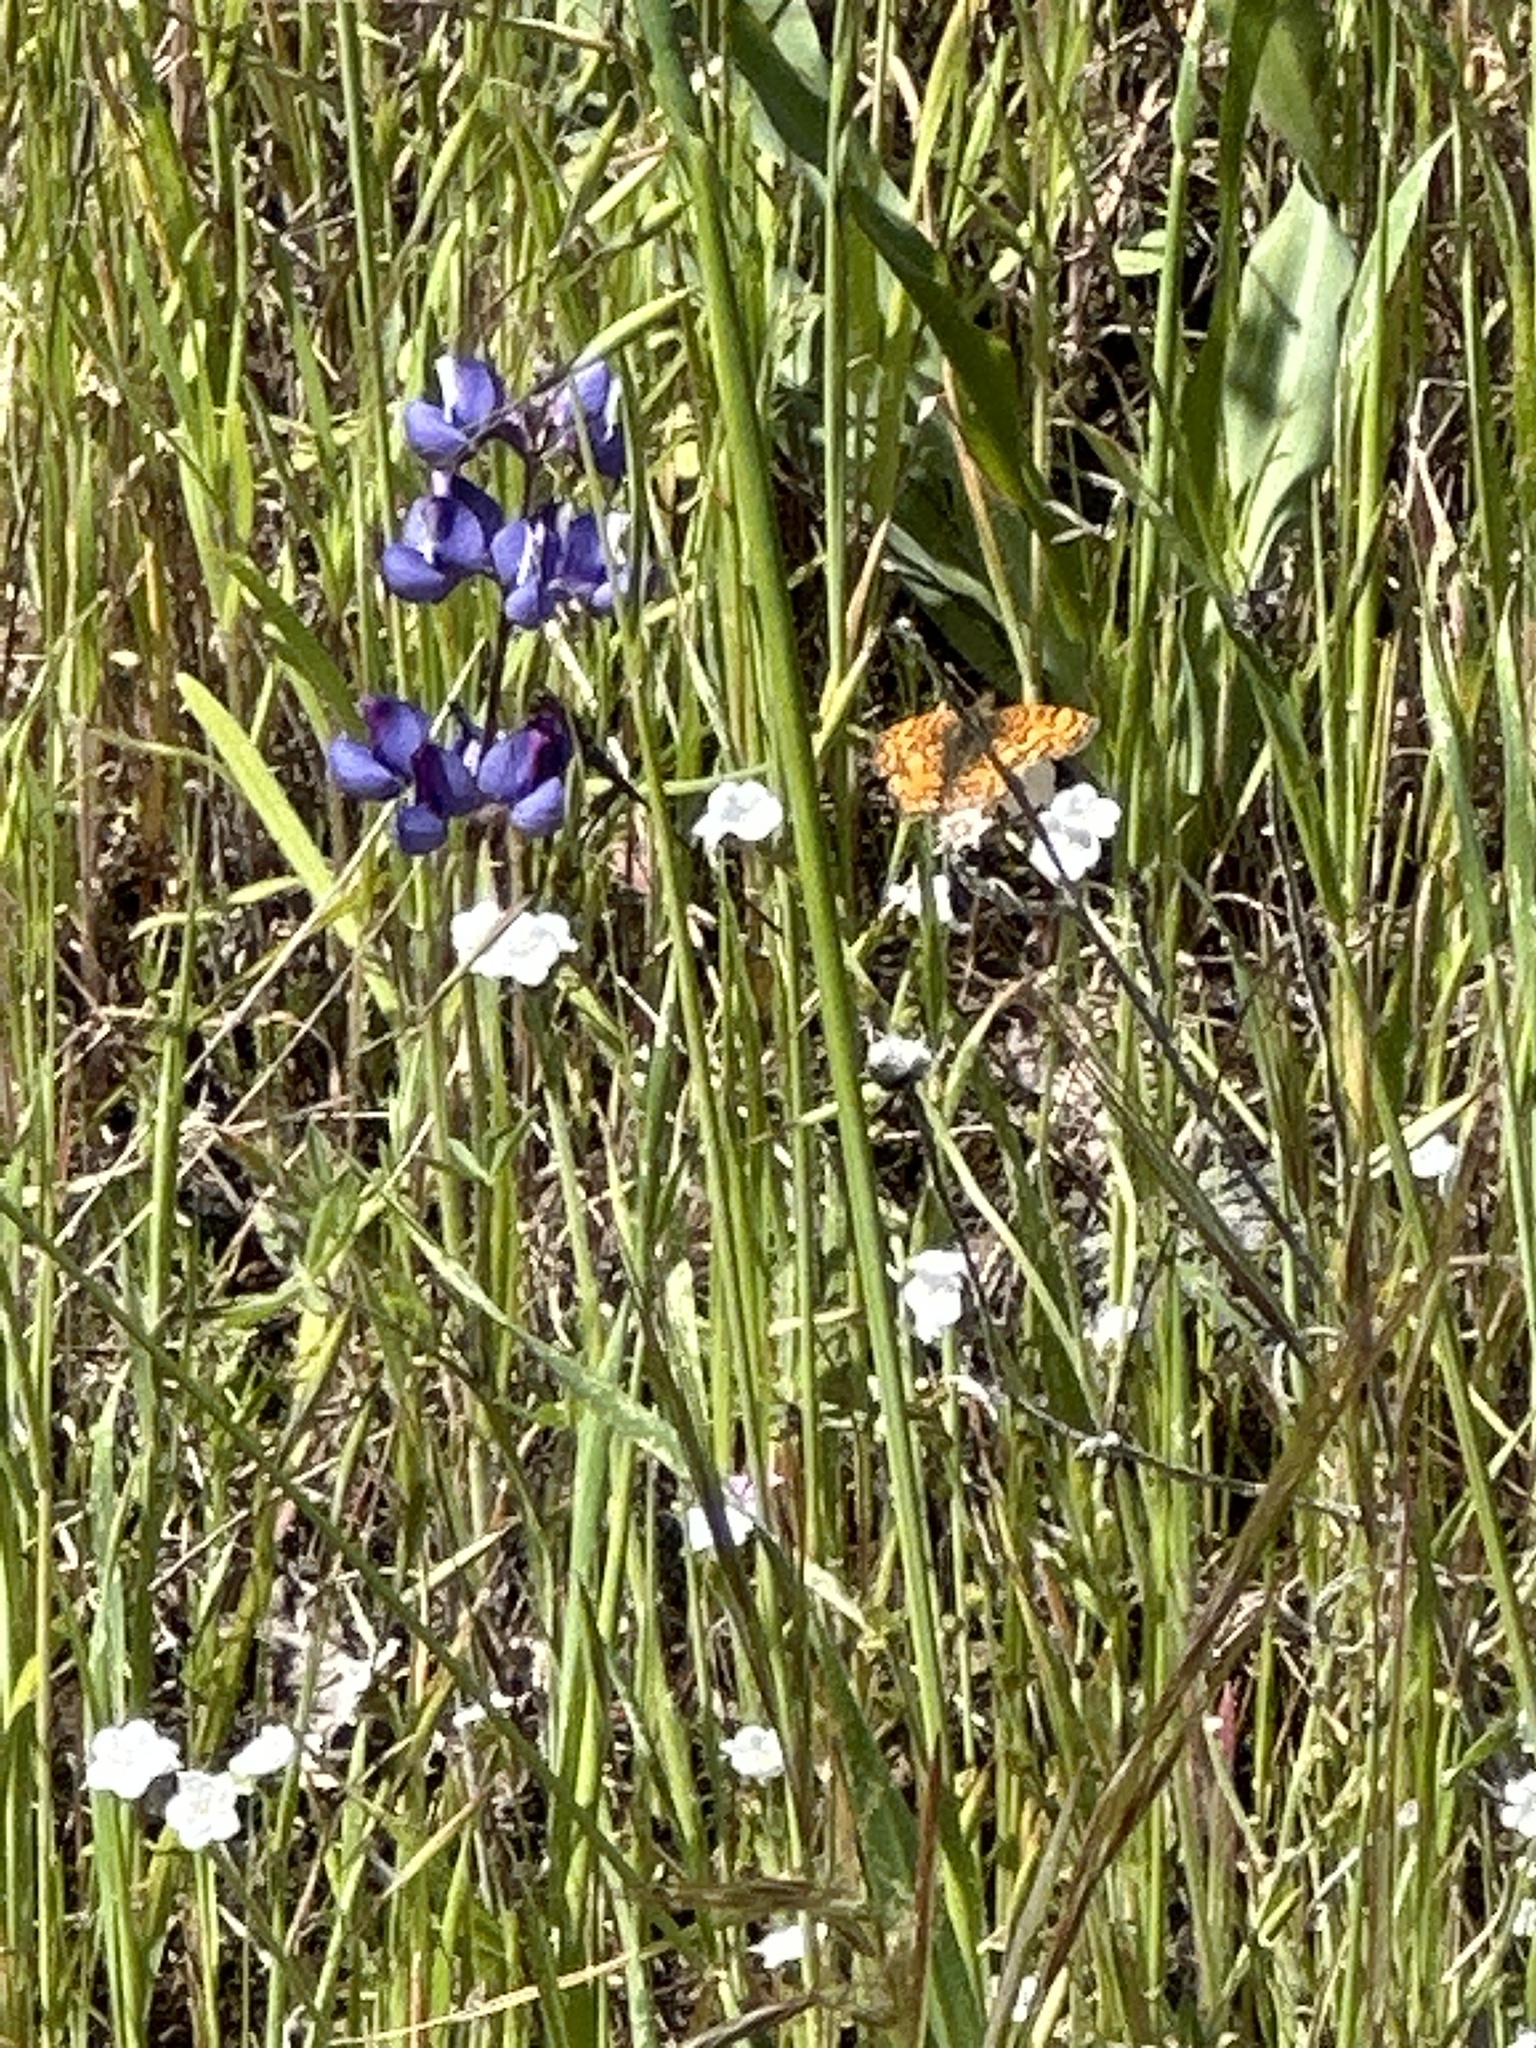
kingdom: Animalia
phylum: Arthropoda
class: Insecta
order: Lepidoptera
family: Nymphalidae
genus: Eresia
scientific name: Eresia aveyrona
